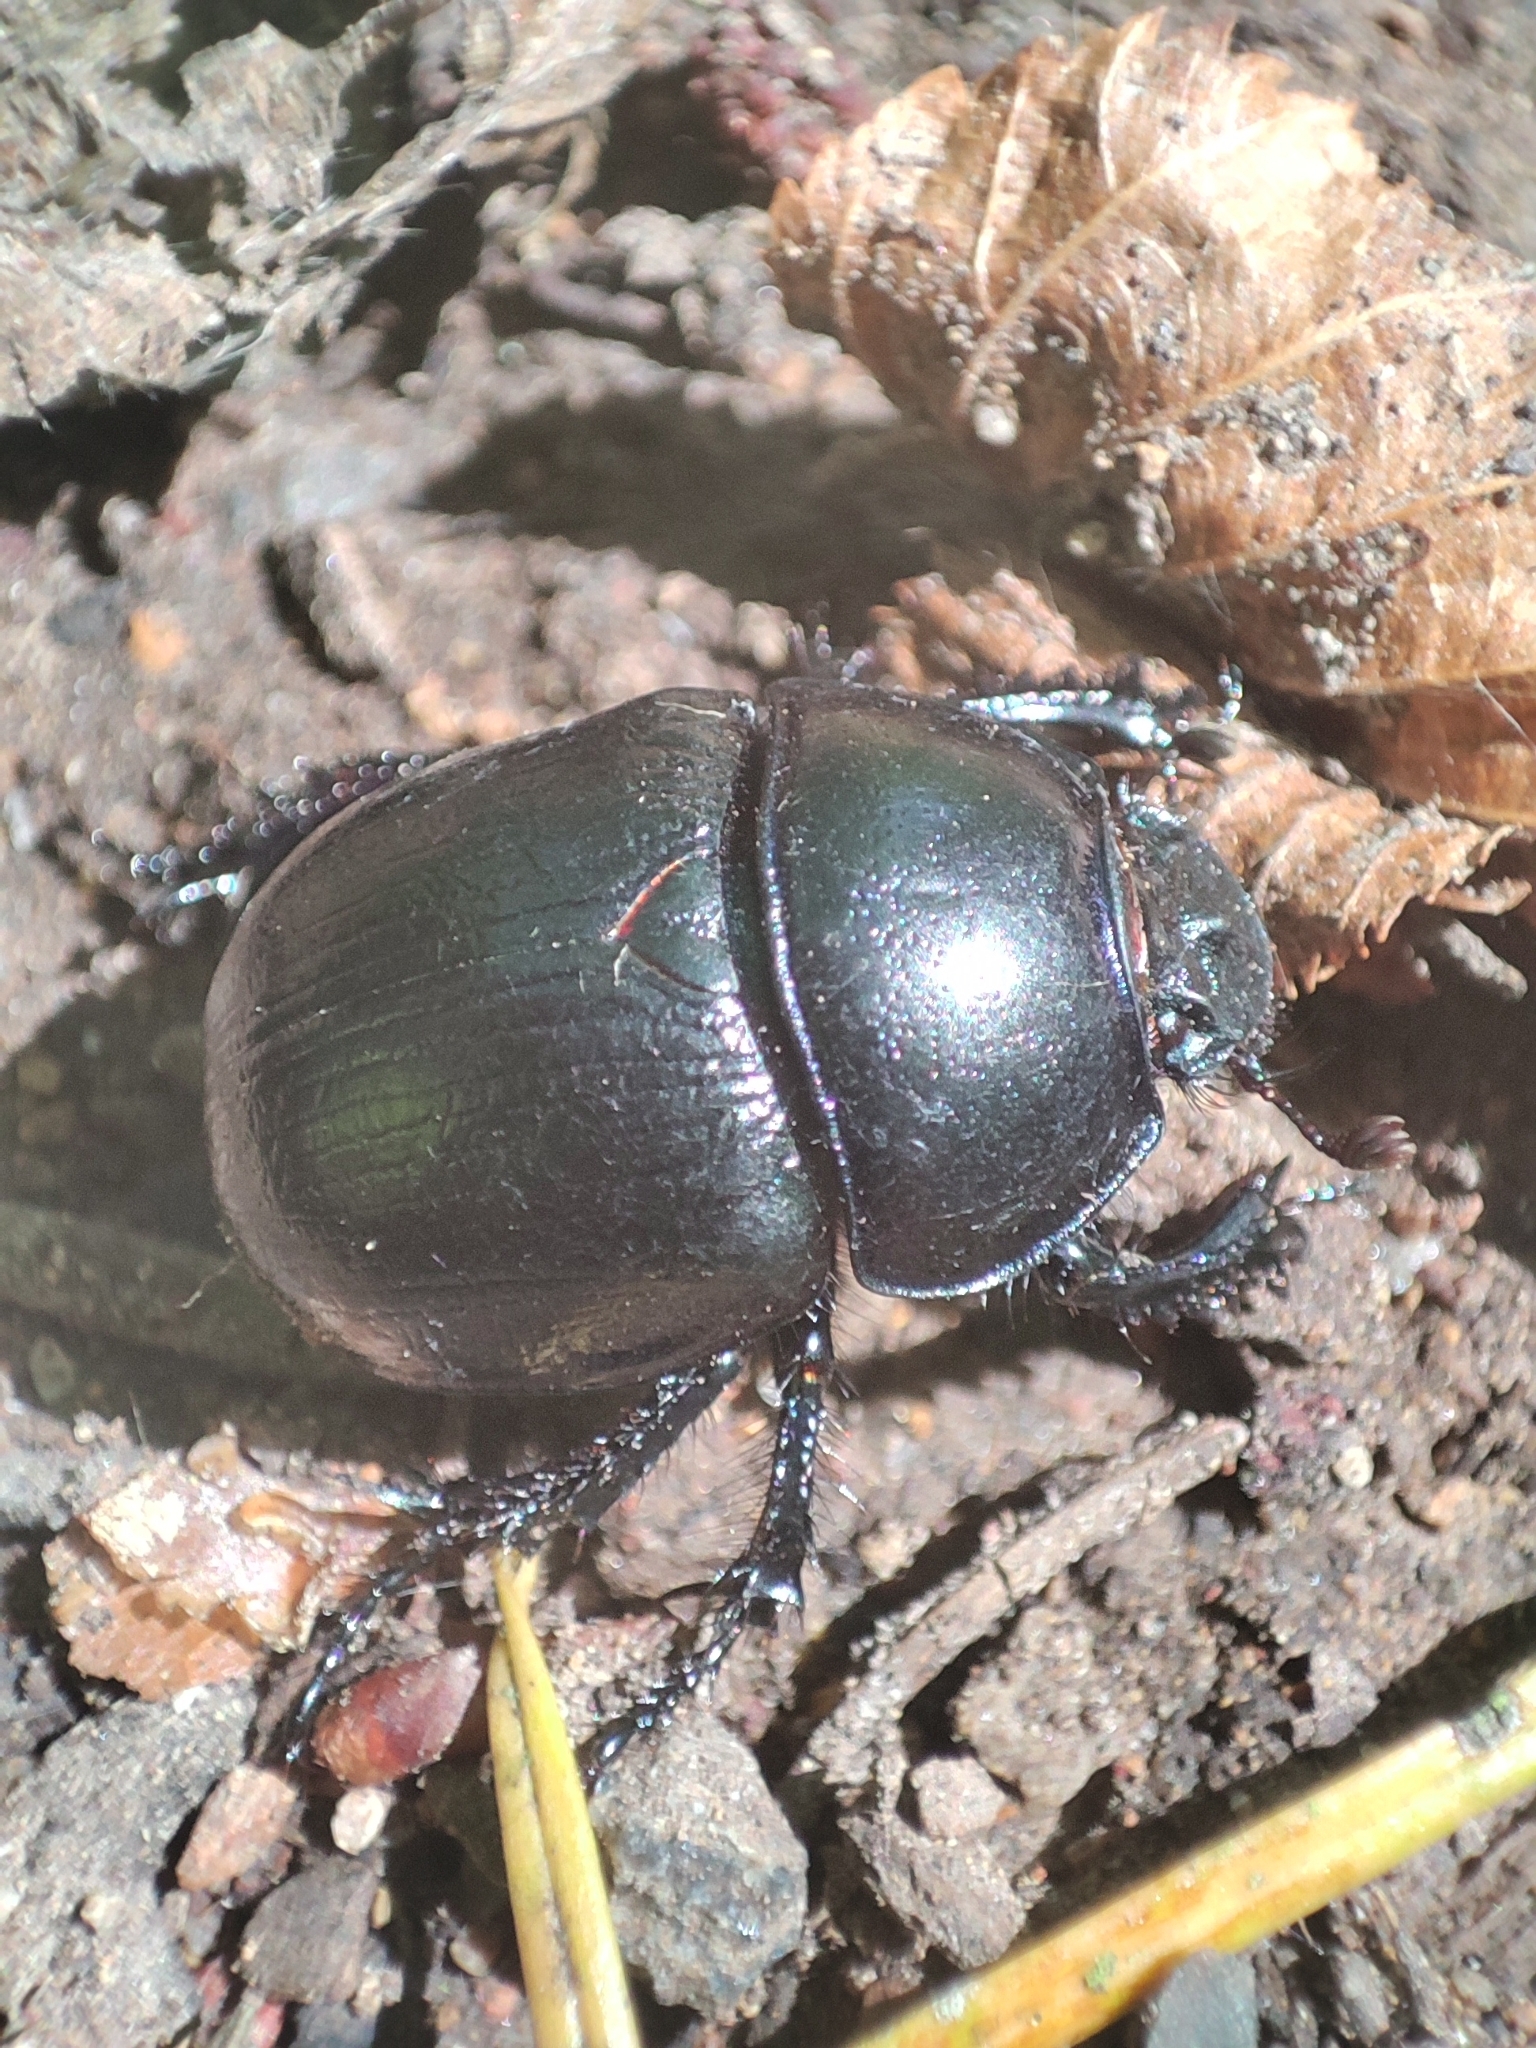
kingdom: Animalia
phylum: Arthropoda
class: Insecta
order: Coleoptera
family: Geotrupidae
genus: Trypocopris
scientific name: Trypocopris vernalis
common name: Spring dumbledor
